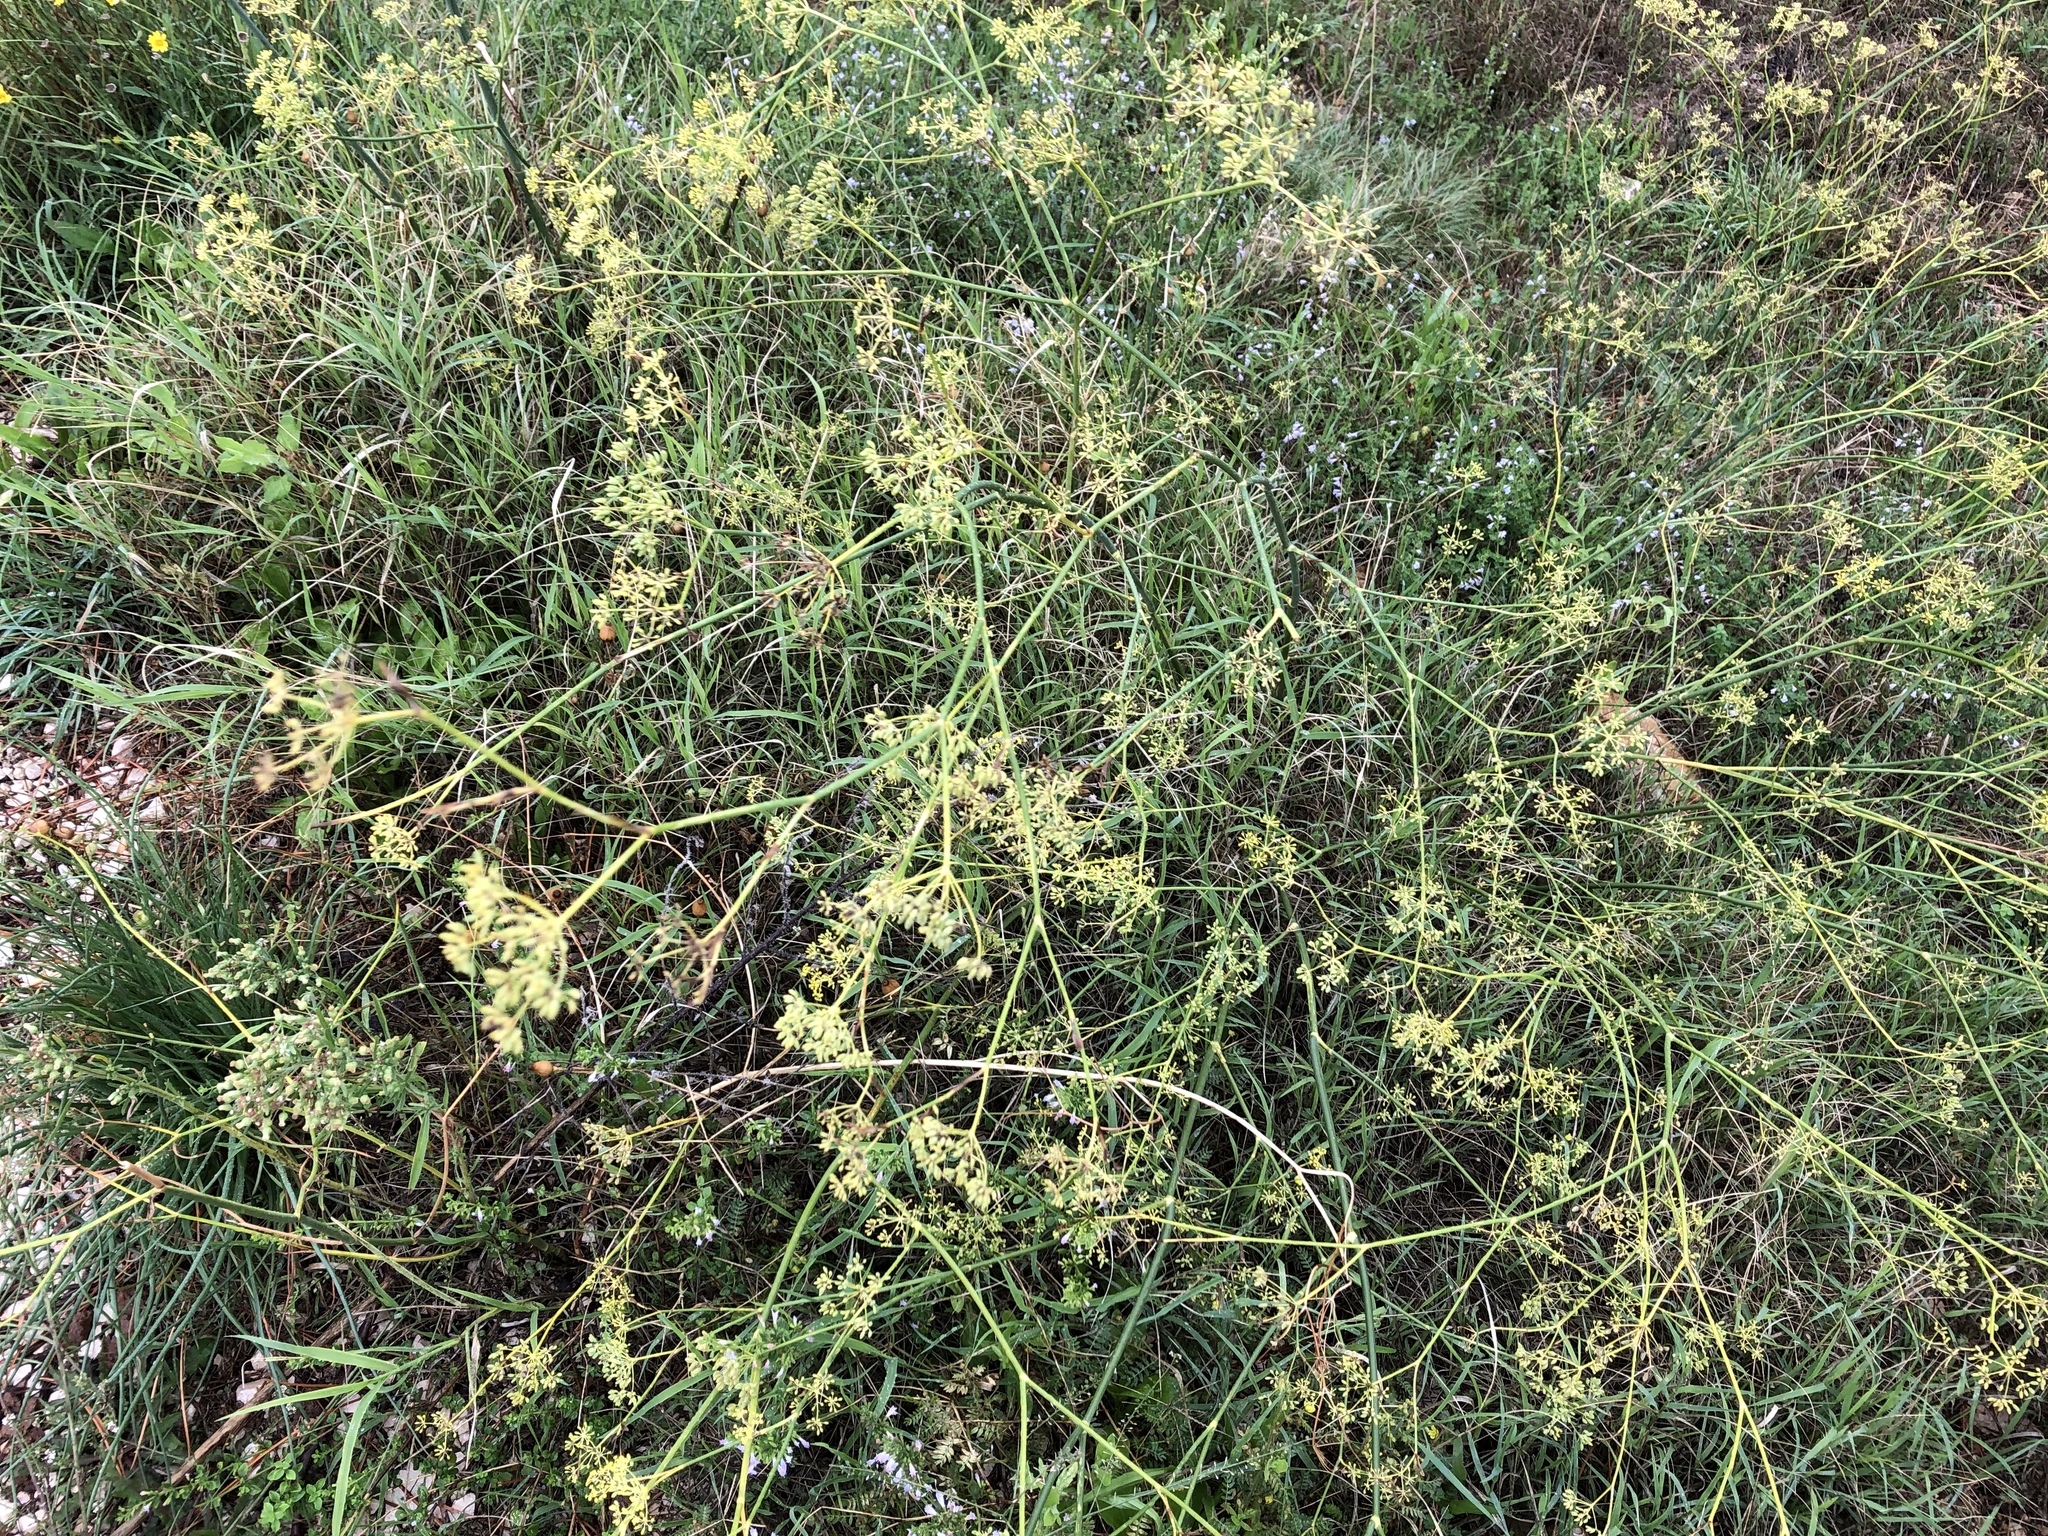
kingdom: Plantae
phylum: Tracheophyta
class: Magnoliopsida
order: Apiales
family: Apiaceae
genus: Foeniculum
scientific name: Foeniculum vulgare
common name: Fennel
